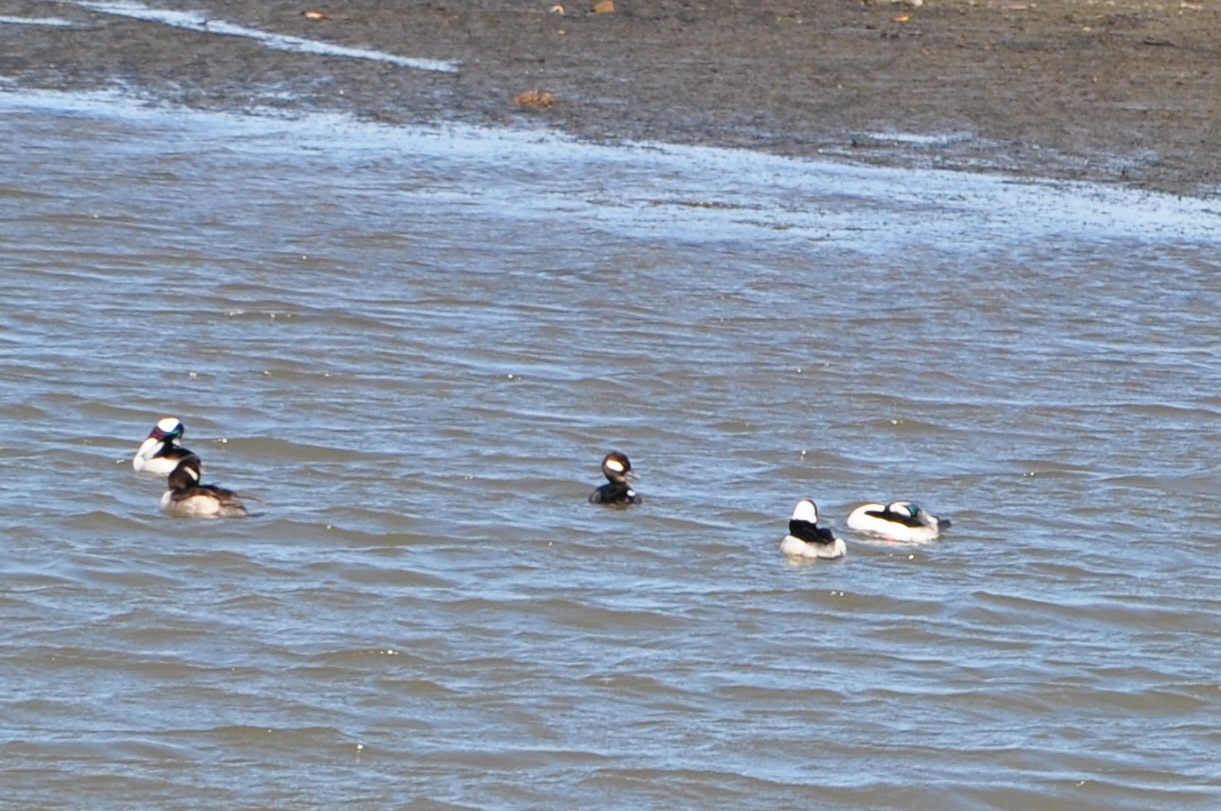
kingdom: Animalia
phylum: Chordata
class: Aves
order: Anseriformes
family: Anatidae
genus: Bucephala
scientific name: Bucephala albeola
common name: Bufflehead
